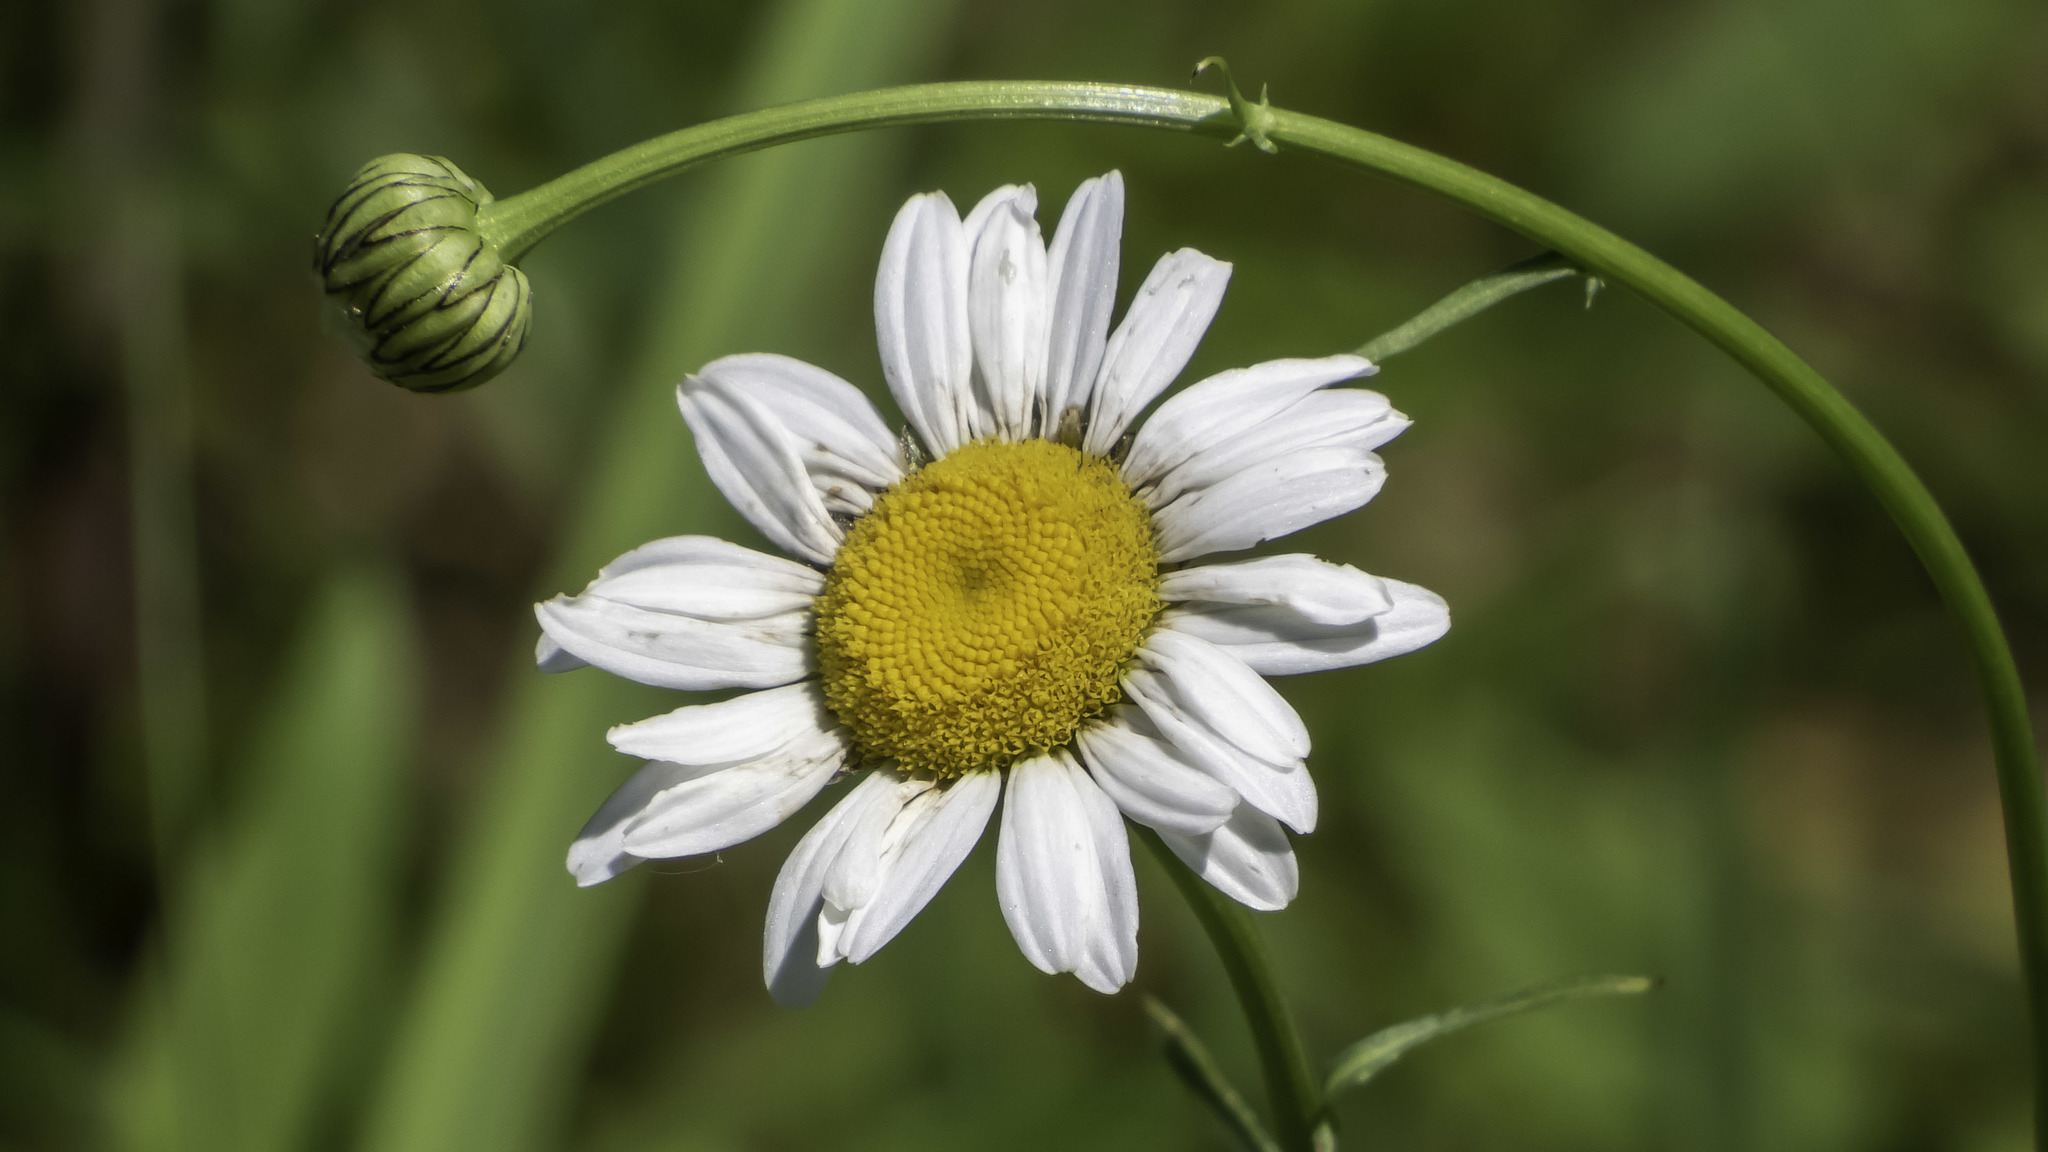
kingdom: Plantae
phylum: Tracheophyta
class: Magnoliopsida
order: Asterales
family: Asteraceae
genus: Leucanthemum
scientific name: Leucanthemum vulgare
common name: Oxeye daisy
